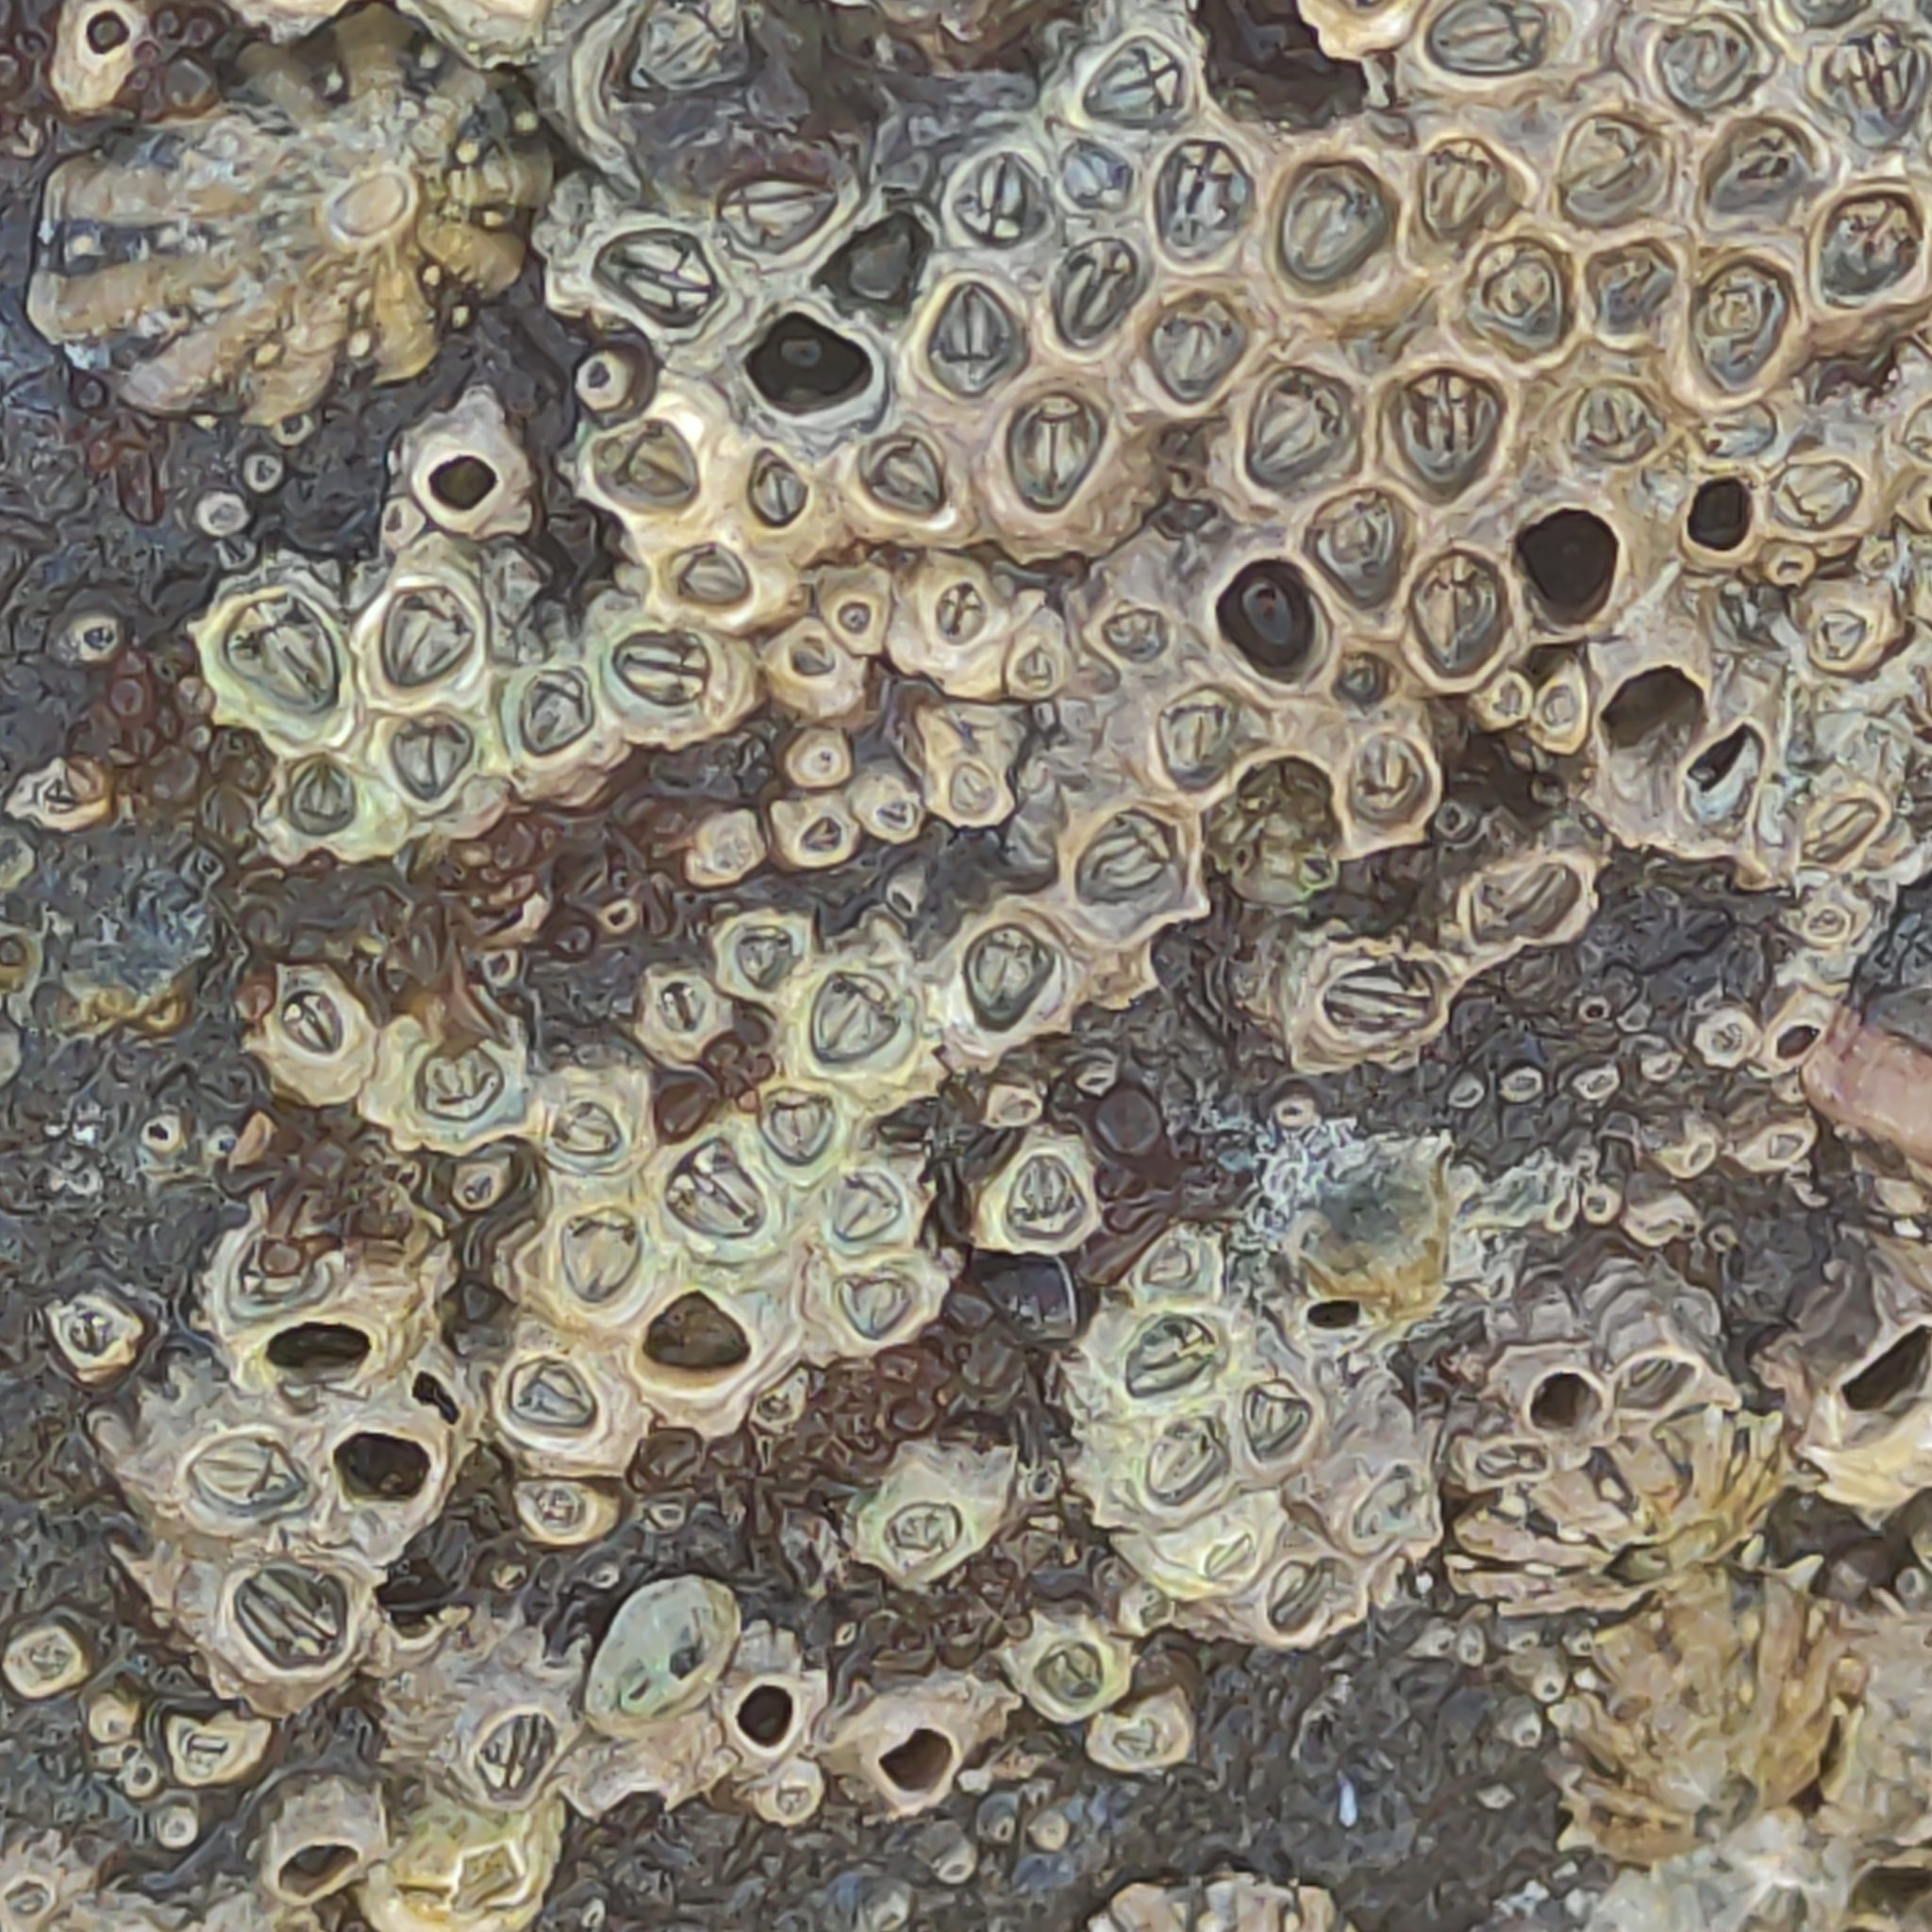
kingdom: Animalia
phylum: Arthropoda
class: Maxillopoda
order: Sessilia
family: Chthamalidae
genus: Chamaesipho
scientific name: Chamaesipho columna
